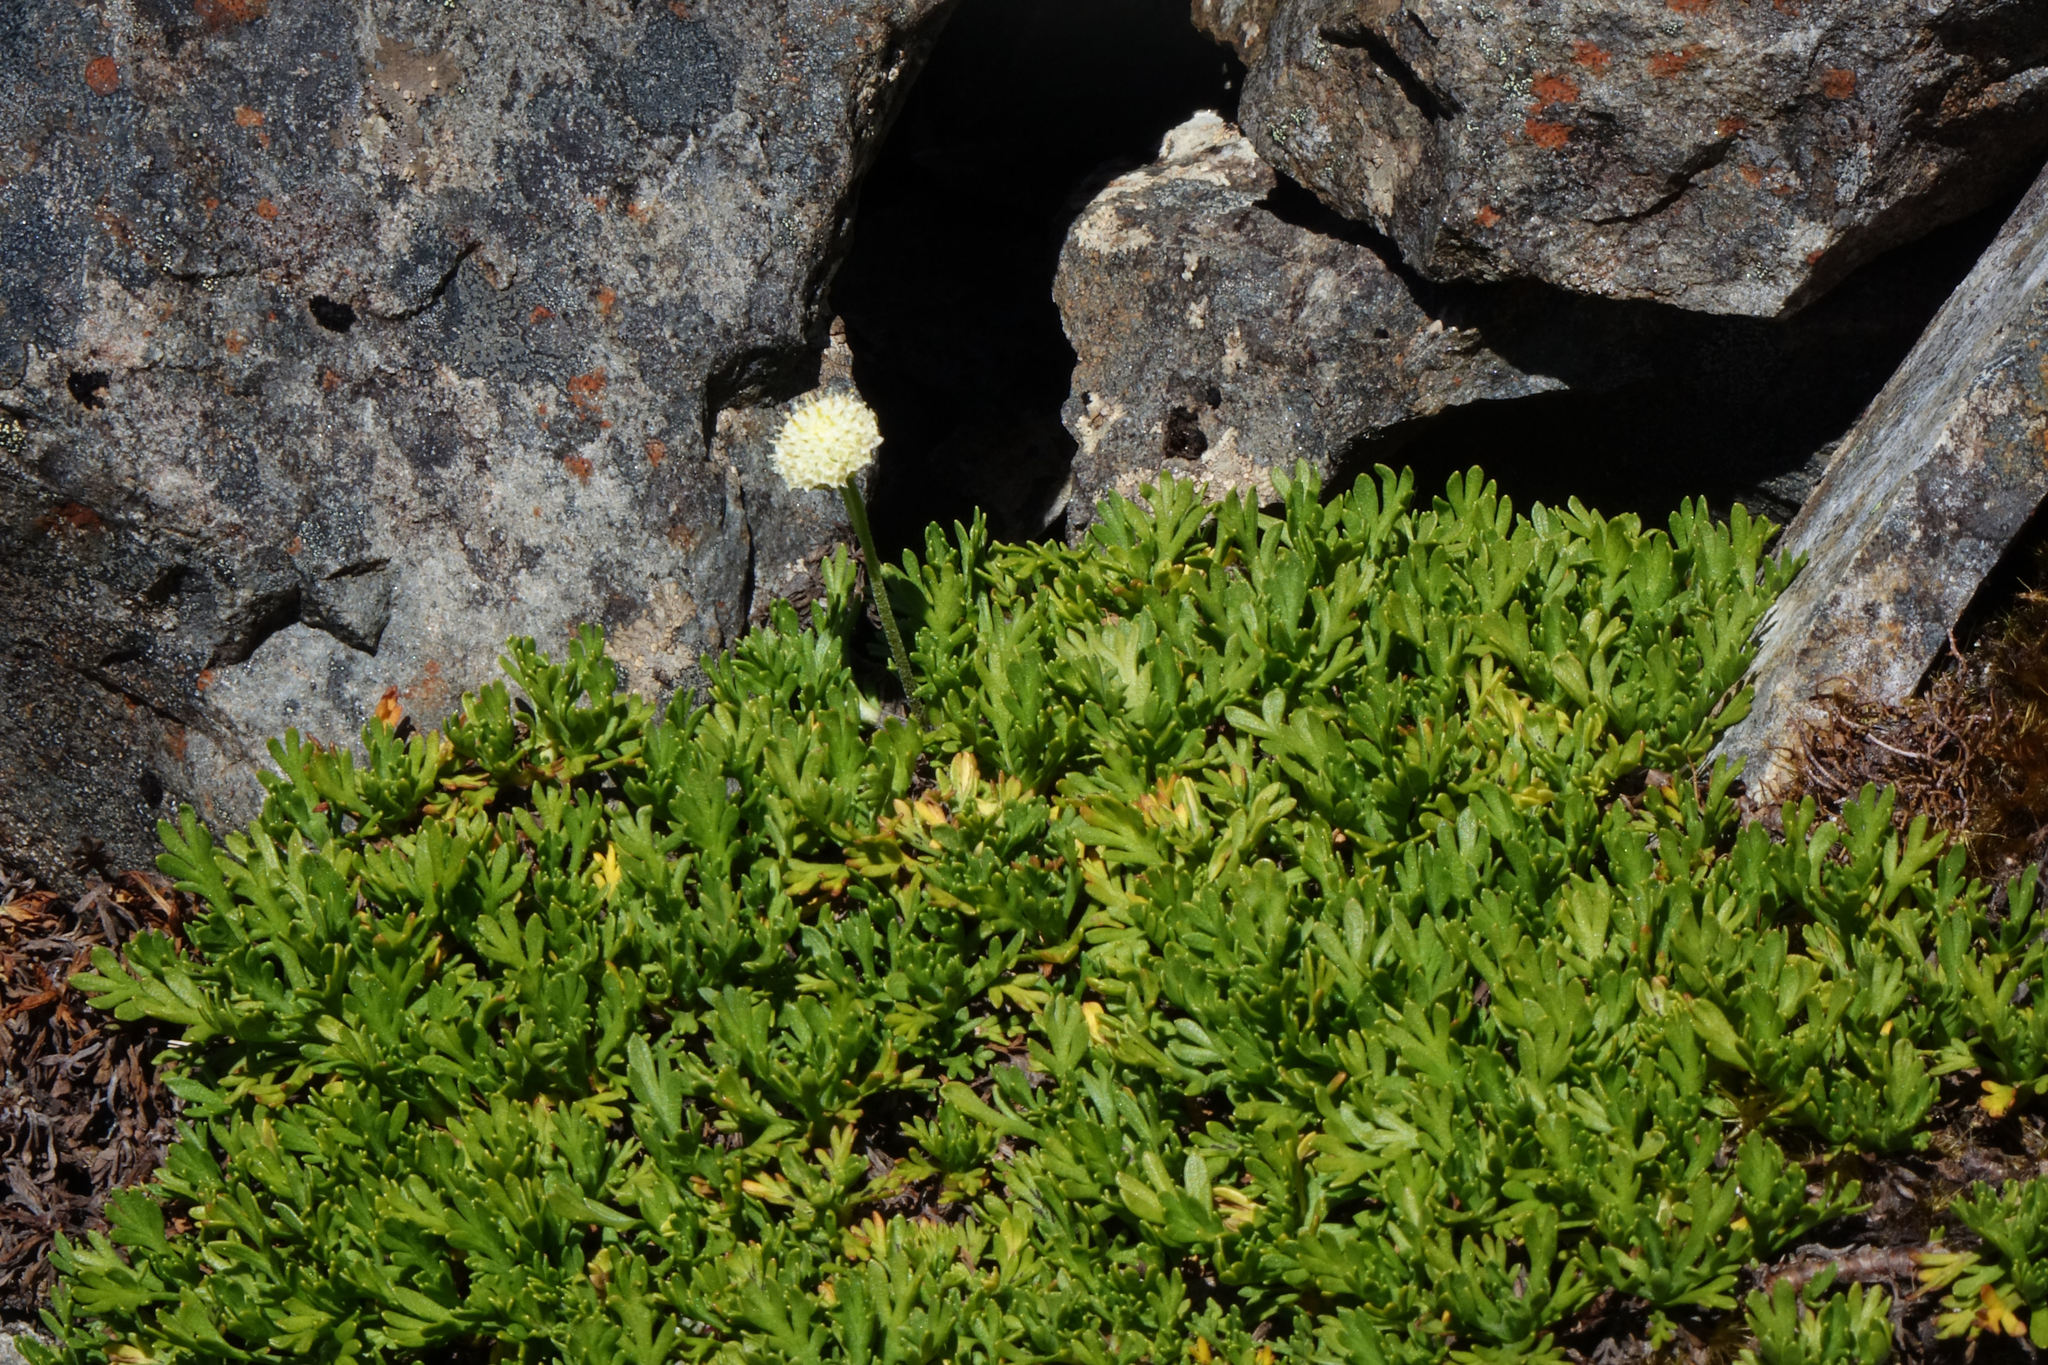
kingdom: Plantae
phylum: Tracheophyta
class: Magnoliopsida
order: Asterales
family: Asteraceae
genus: Leptinella
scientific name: Leptinella pyrethrifolia
